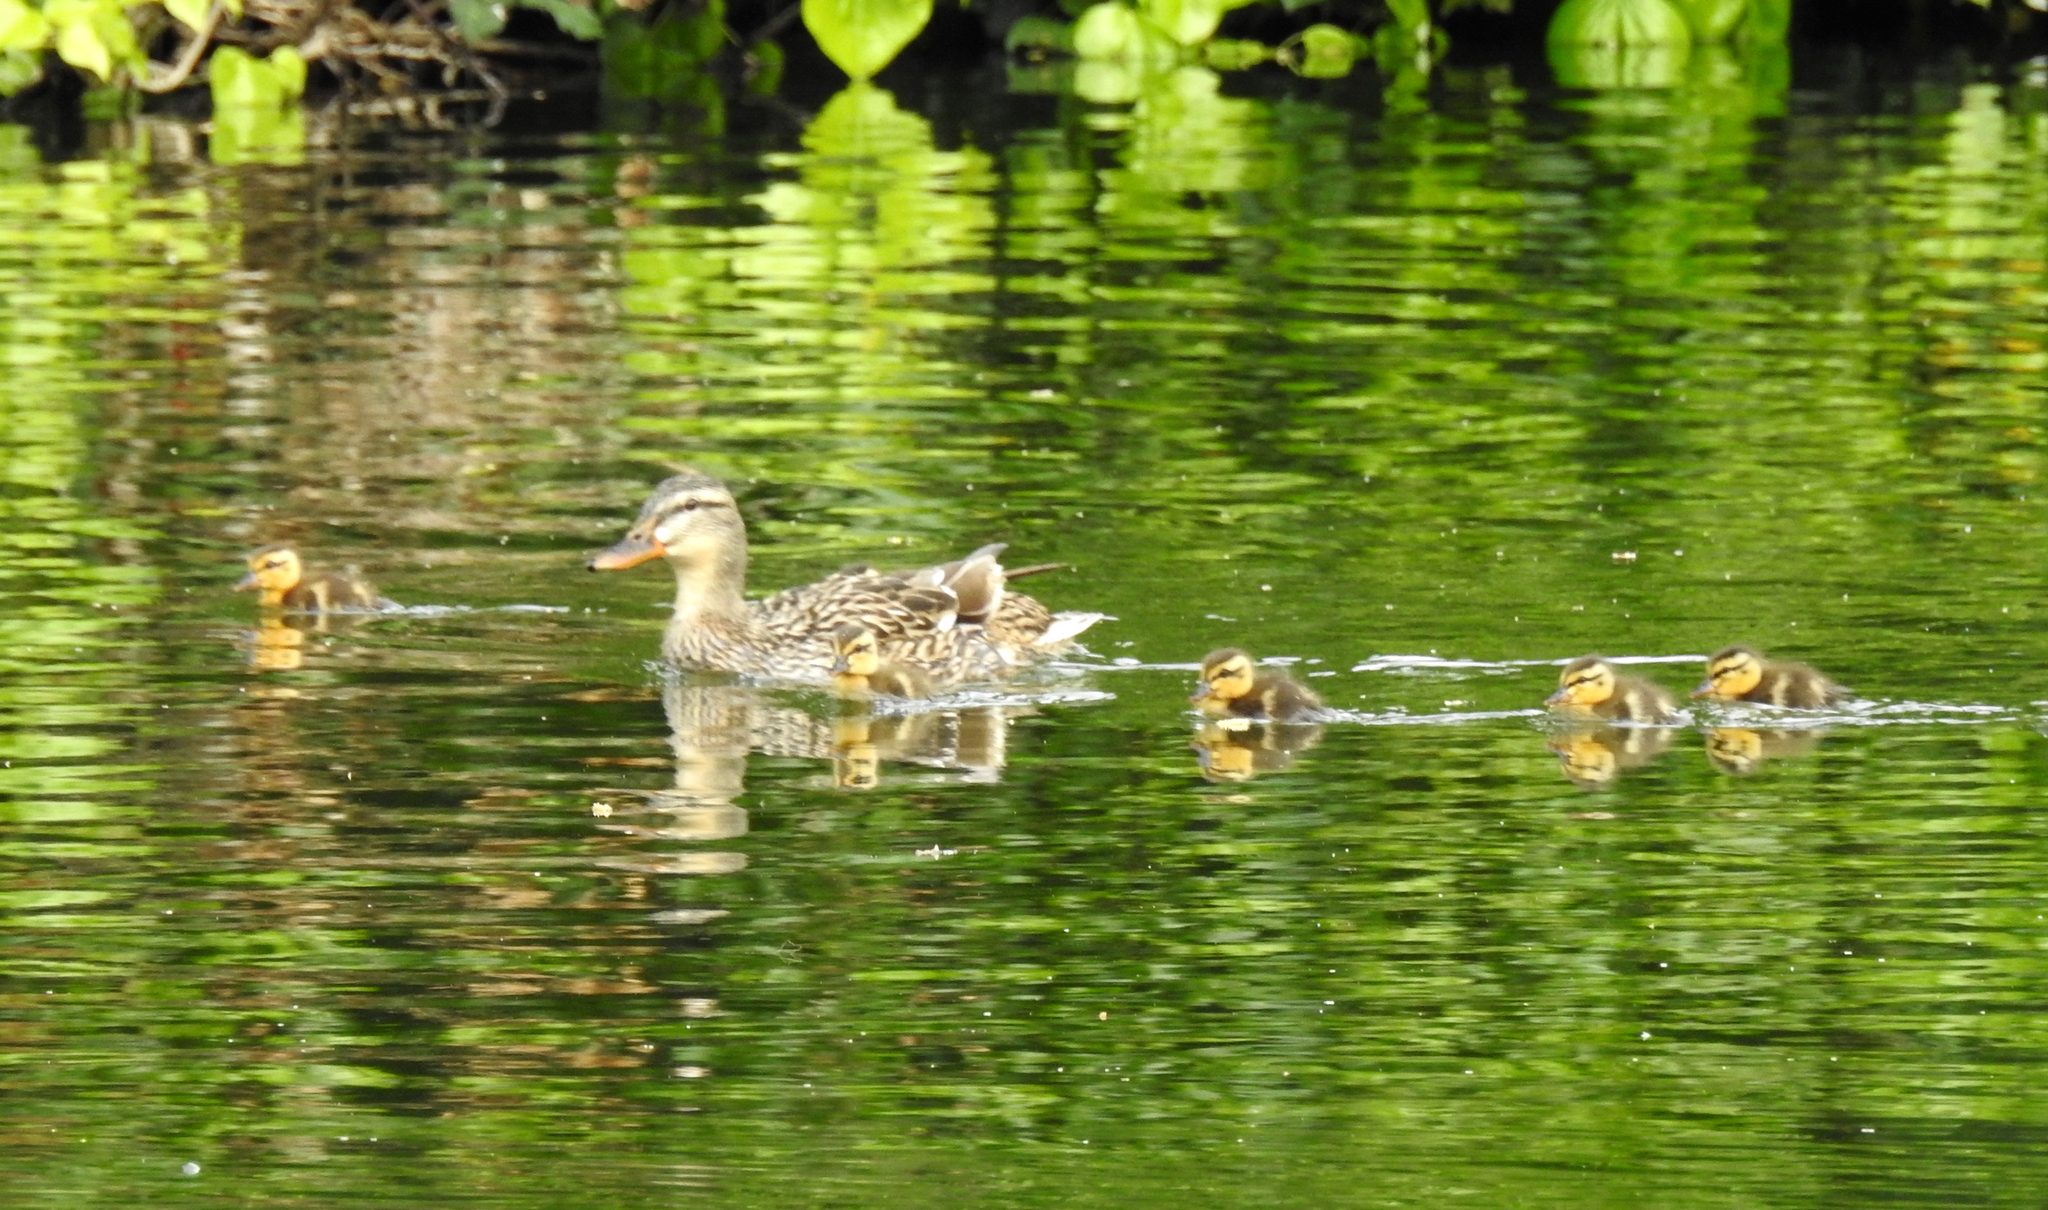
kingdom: Animalia
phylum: Chordata
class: Aves
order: Anseriformes
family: Anatidae
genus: Anas
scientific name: Anas platyrhynchos
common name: Mallard
